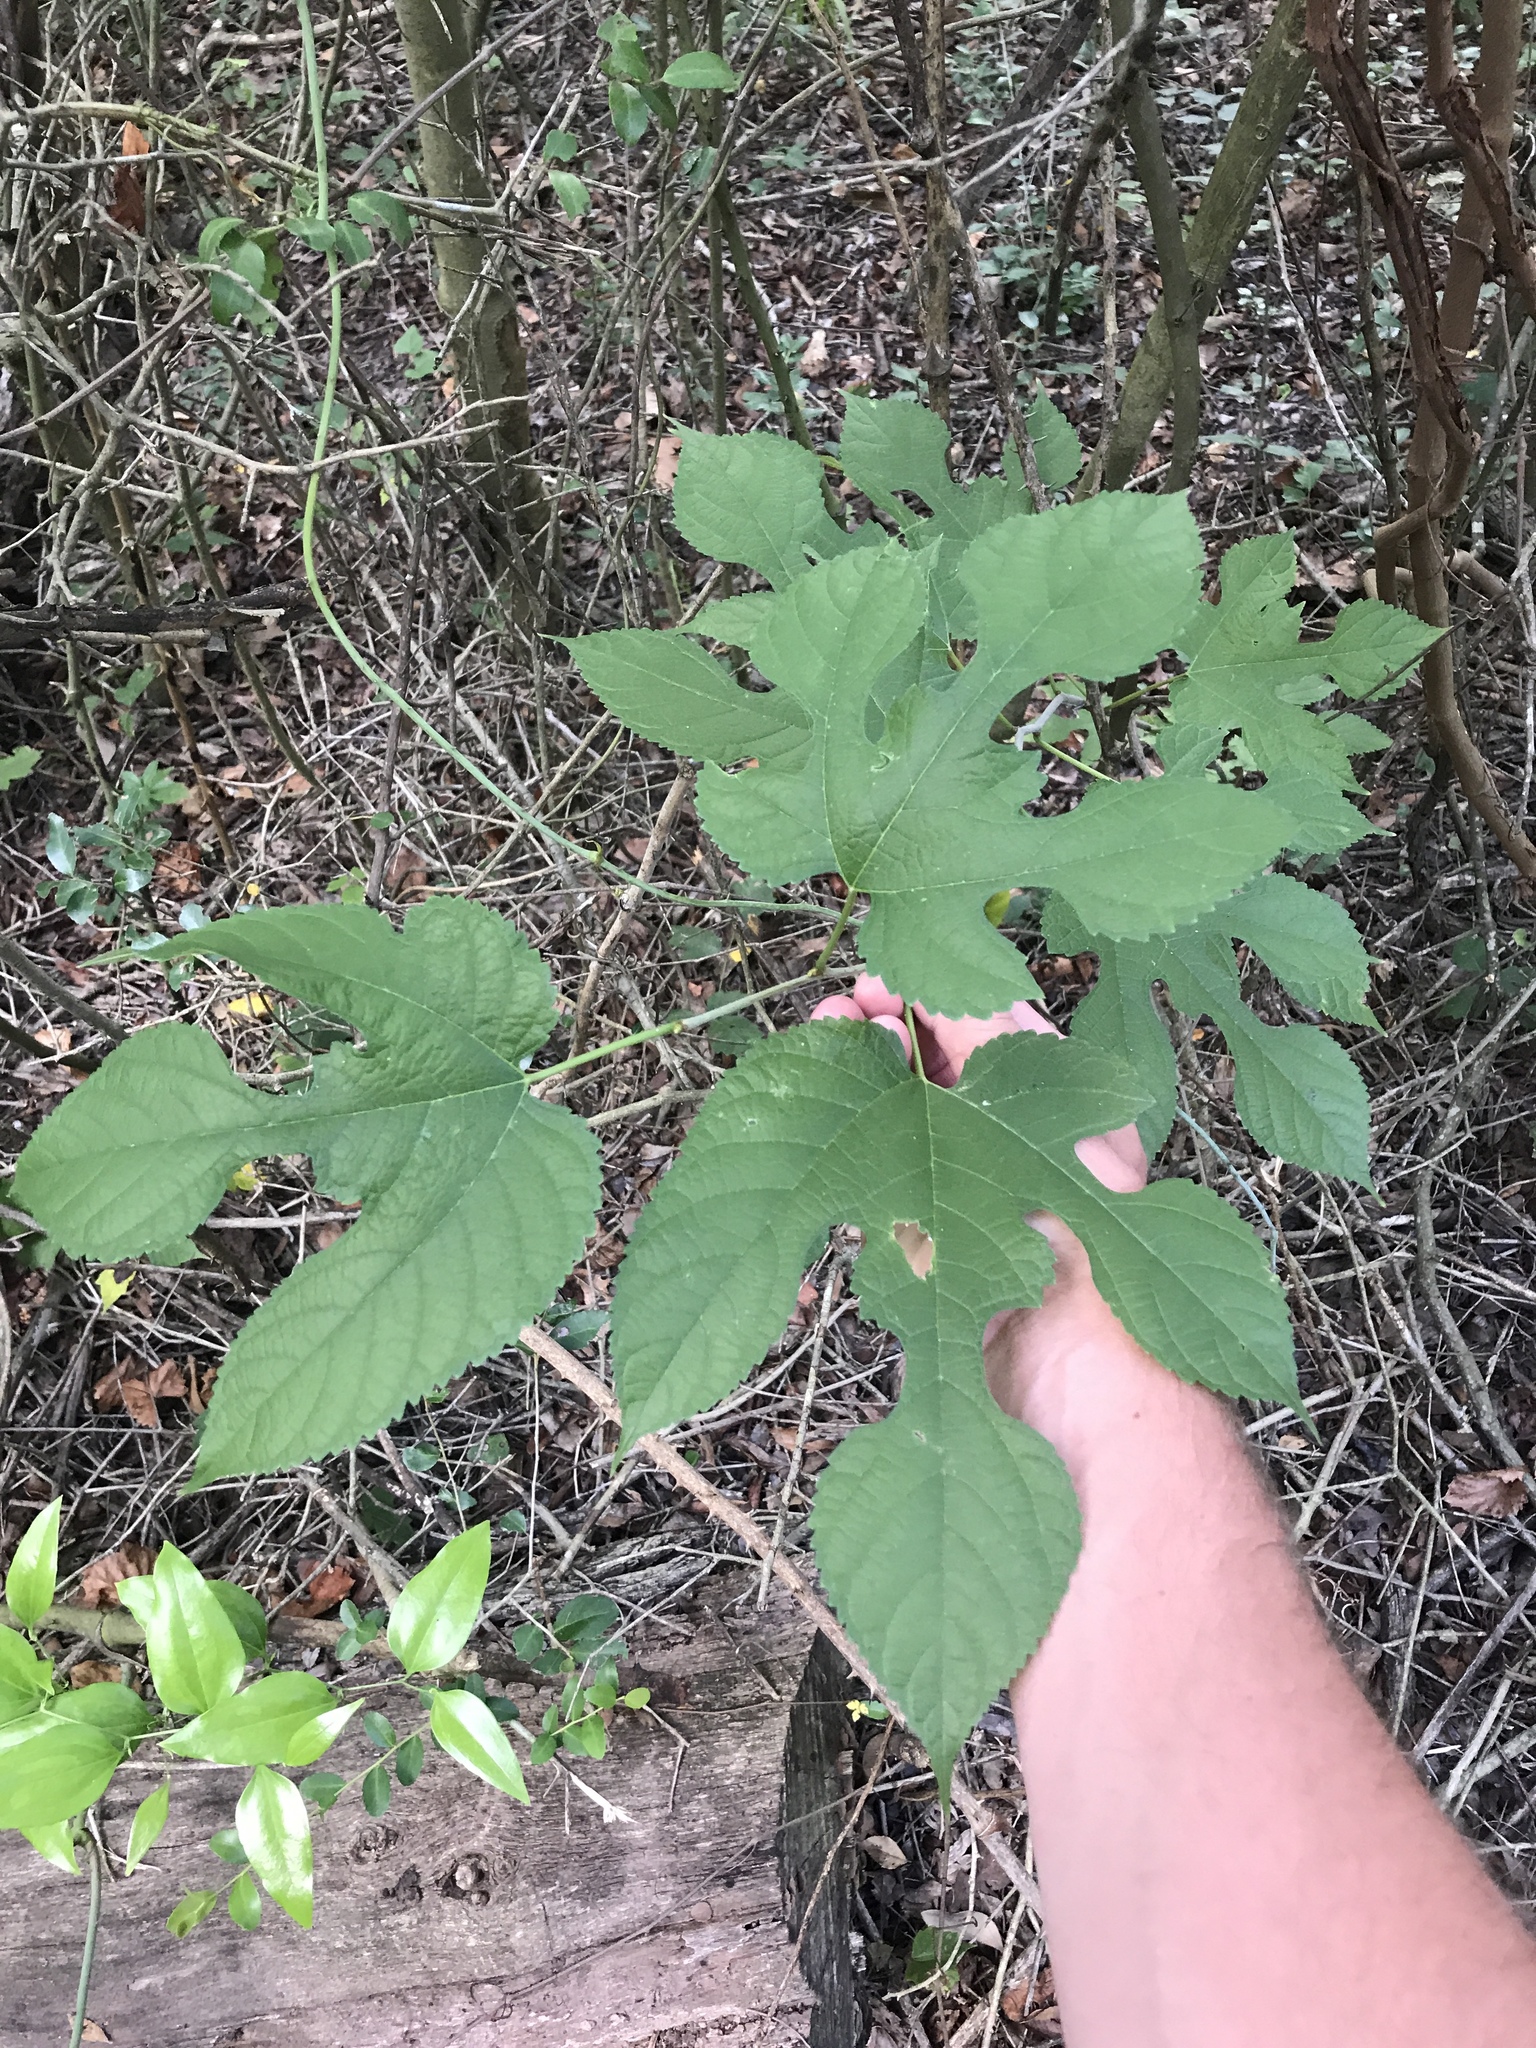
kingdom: Plantae
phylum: Tracheophyta
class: Magnoliopsida
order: Rosales
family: Moraceae
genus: Morus
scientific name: Morus rubra
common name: Red mulberry
